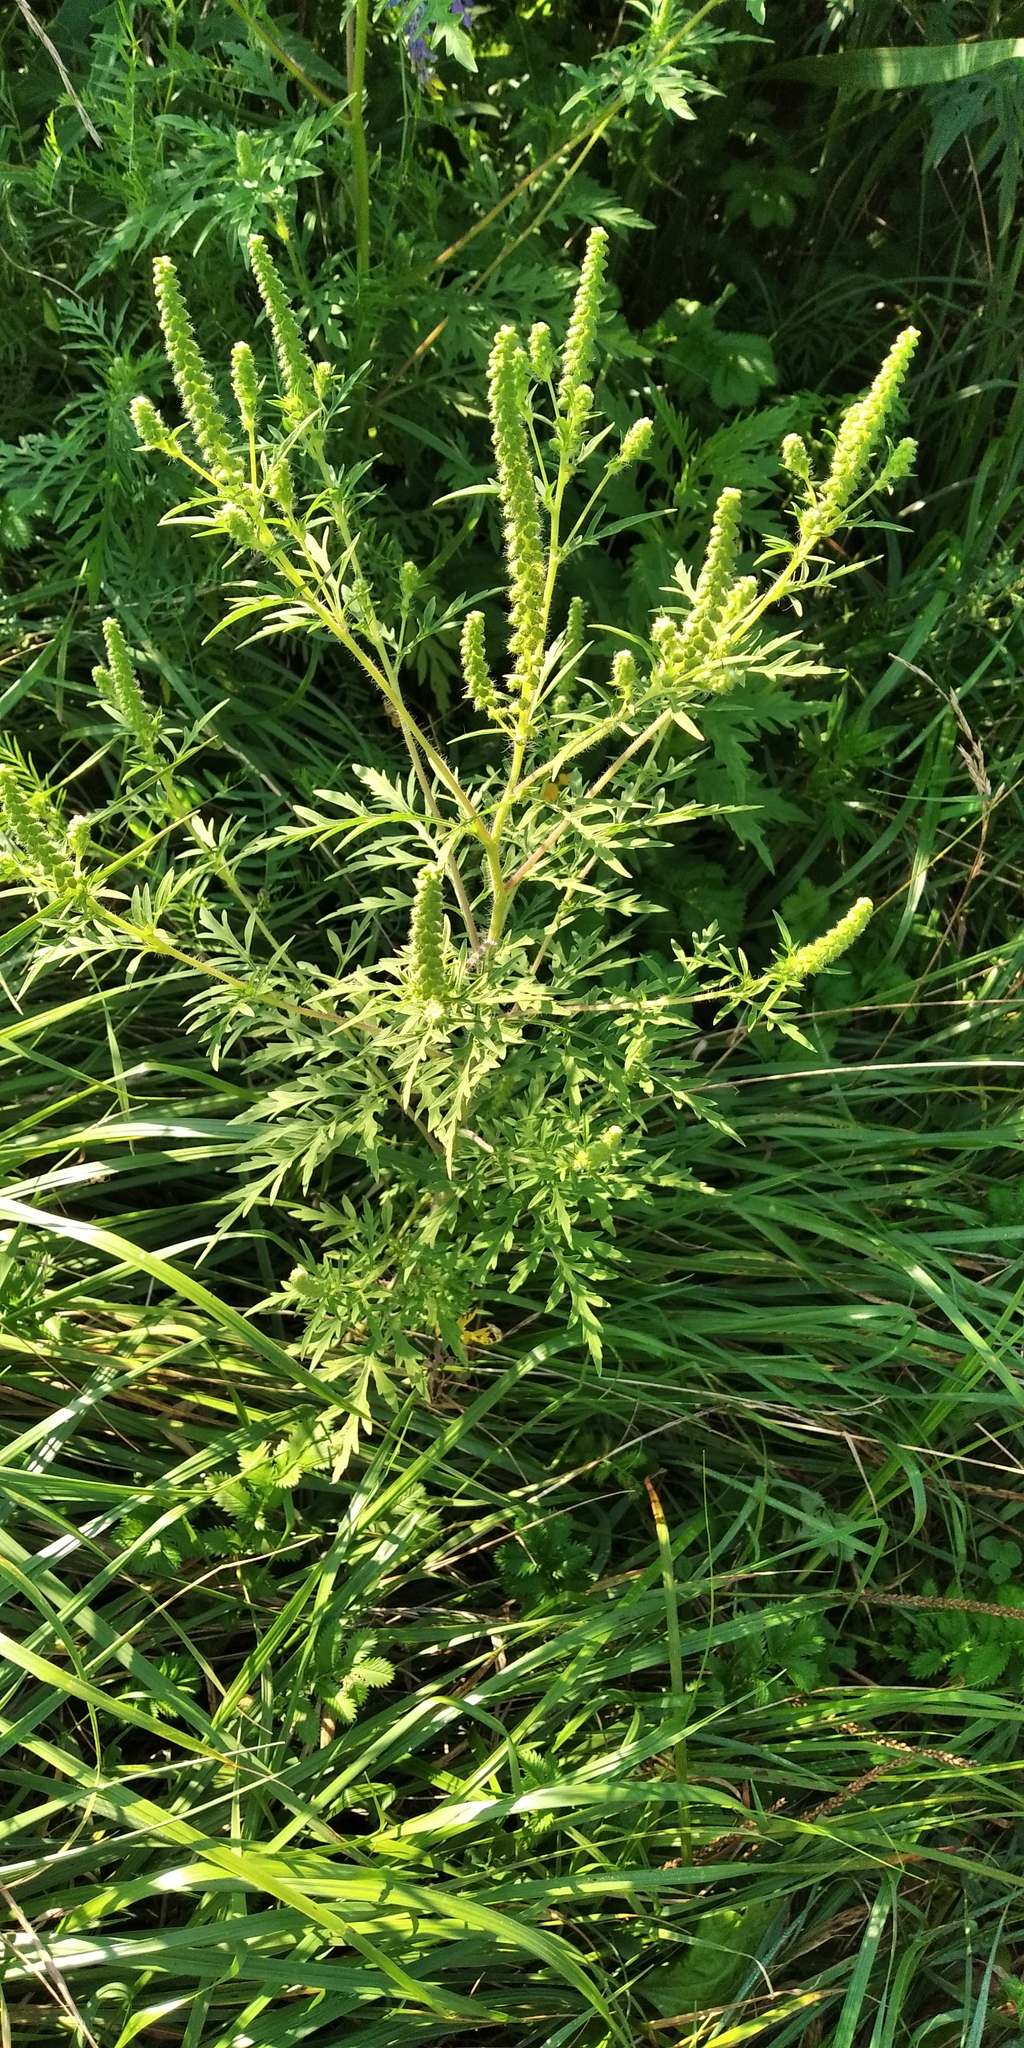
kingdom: Plantae
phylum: Tracheophyta
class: Magnoliopsida
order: Asterales
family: Asteraceae
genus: Ambrosia
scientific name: Ambrosia artemisiifolia
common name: Annual ragweed
